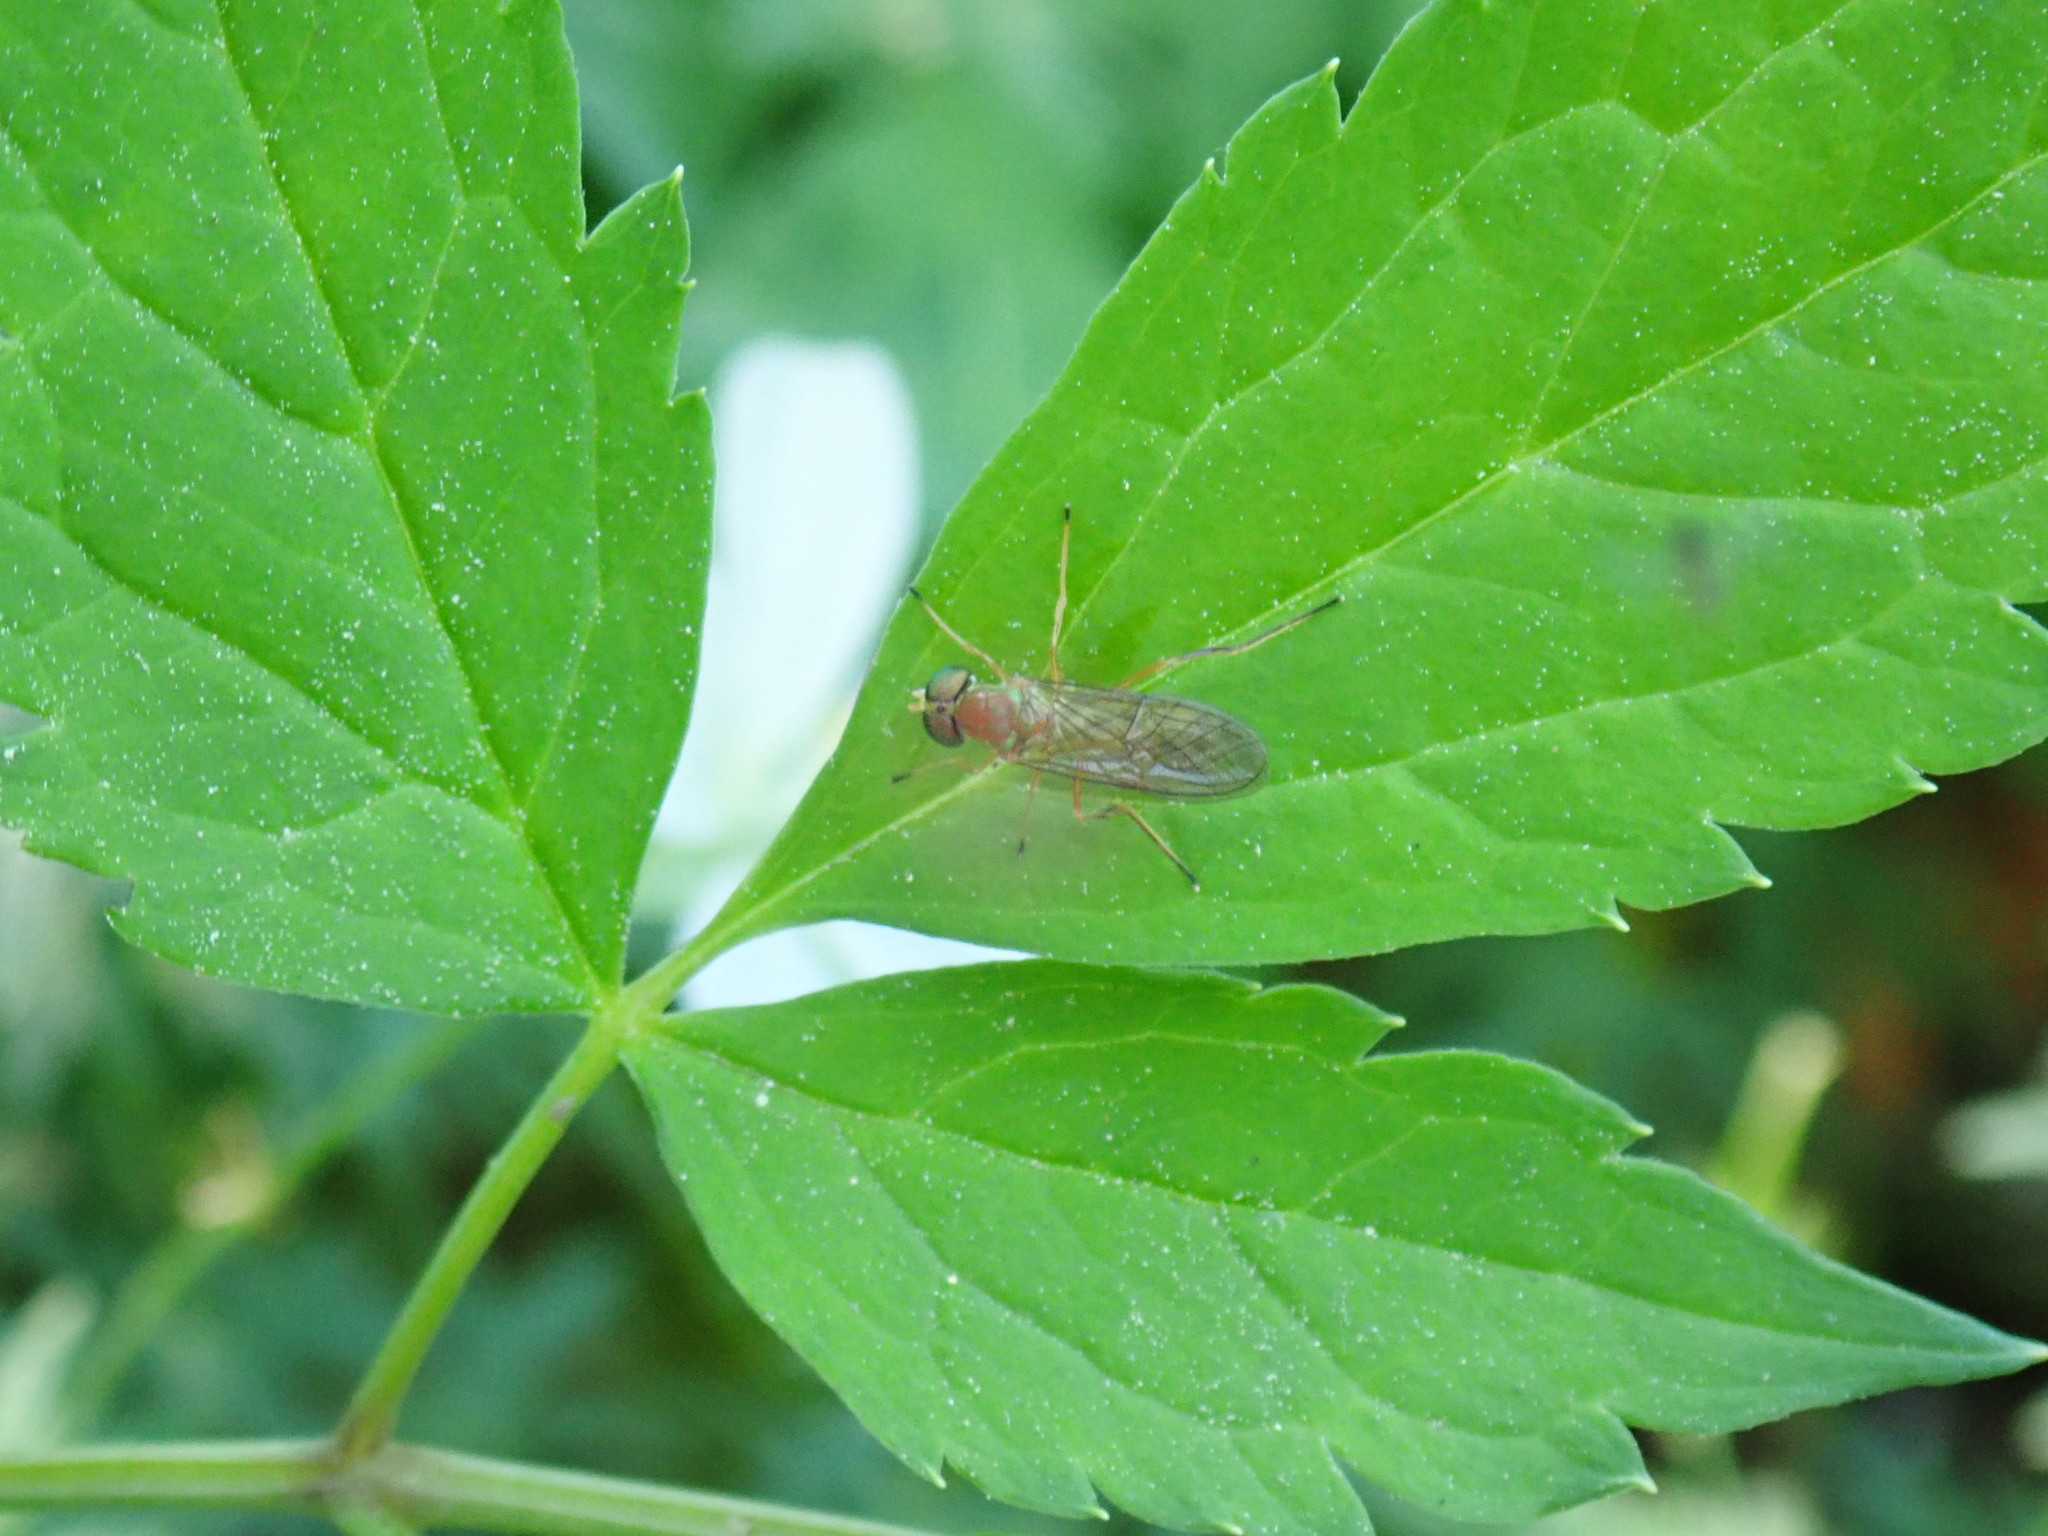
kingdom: Animalia
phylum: Arthropoda
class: Insecta
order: Diptera
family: Stratiomyidae
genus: Ptecticus
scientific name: Ptecticus trivittatus
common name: Compost fly
